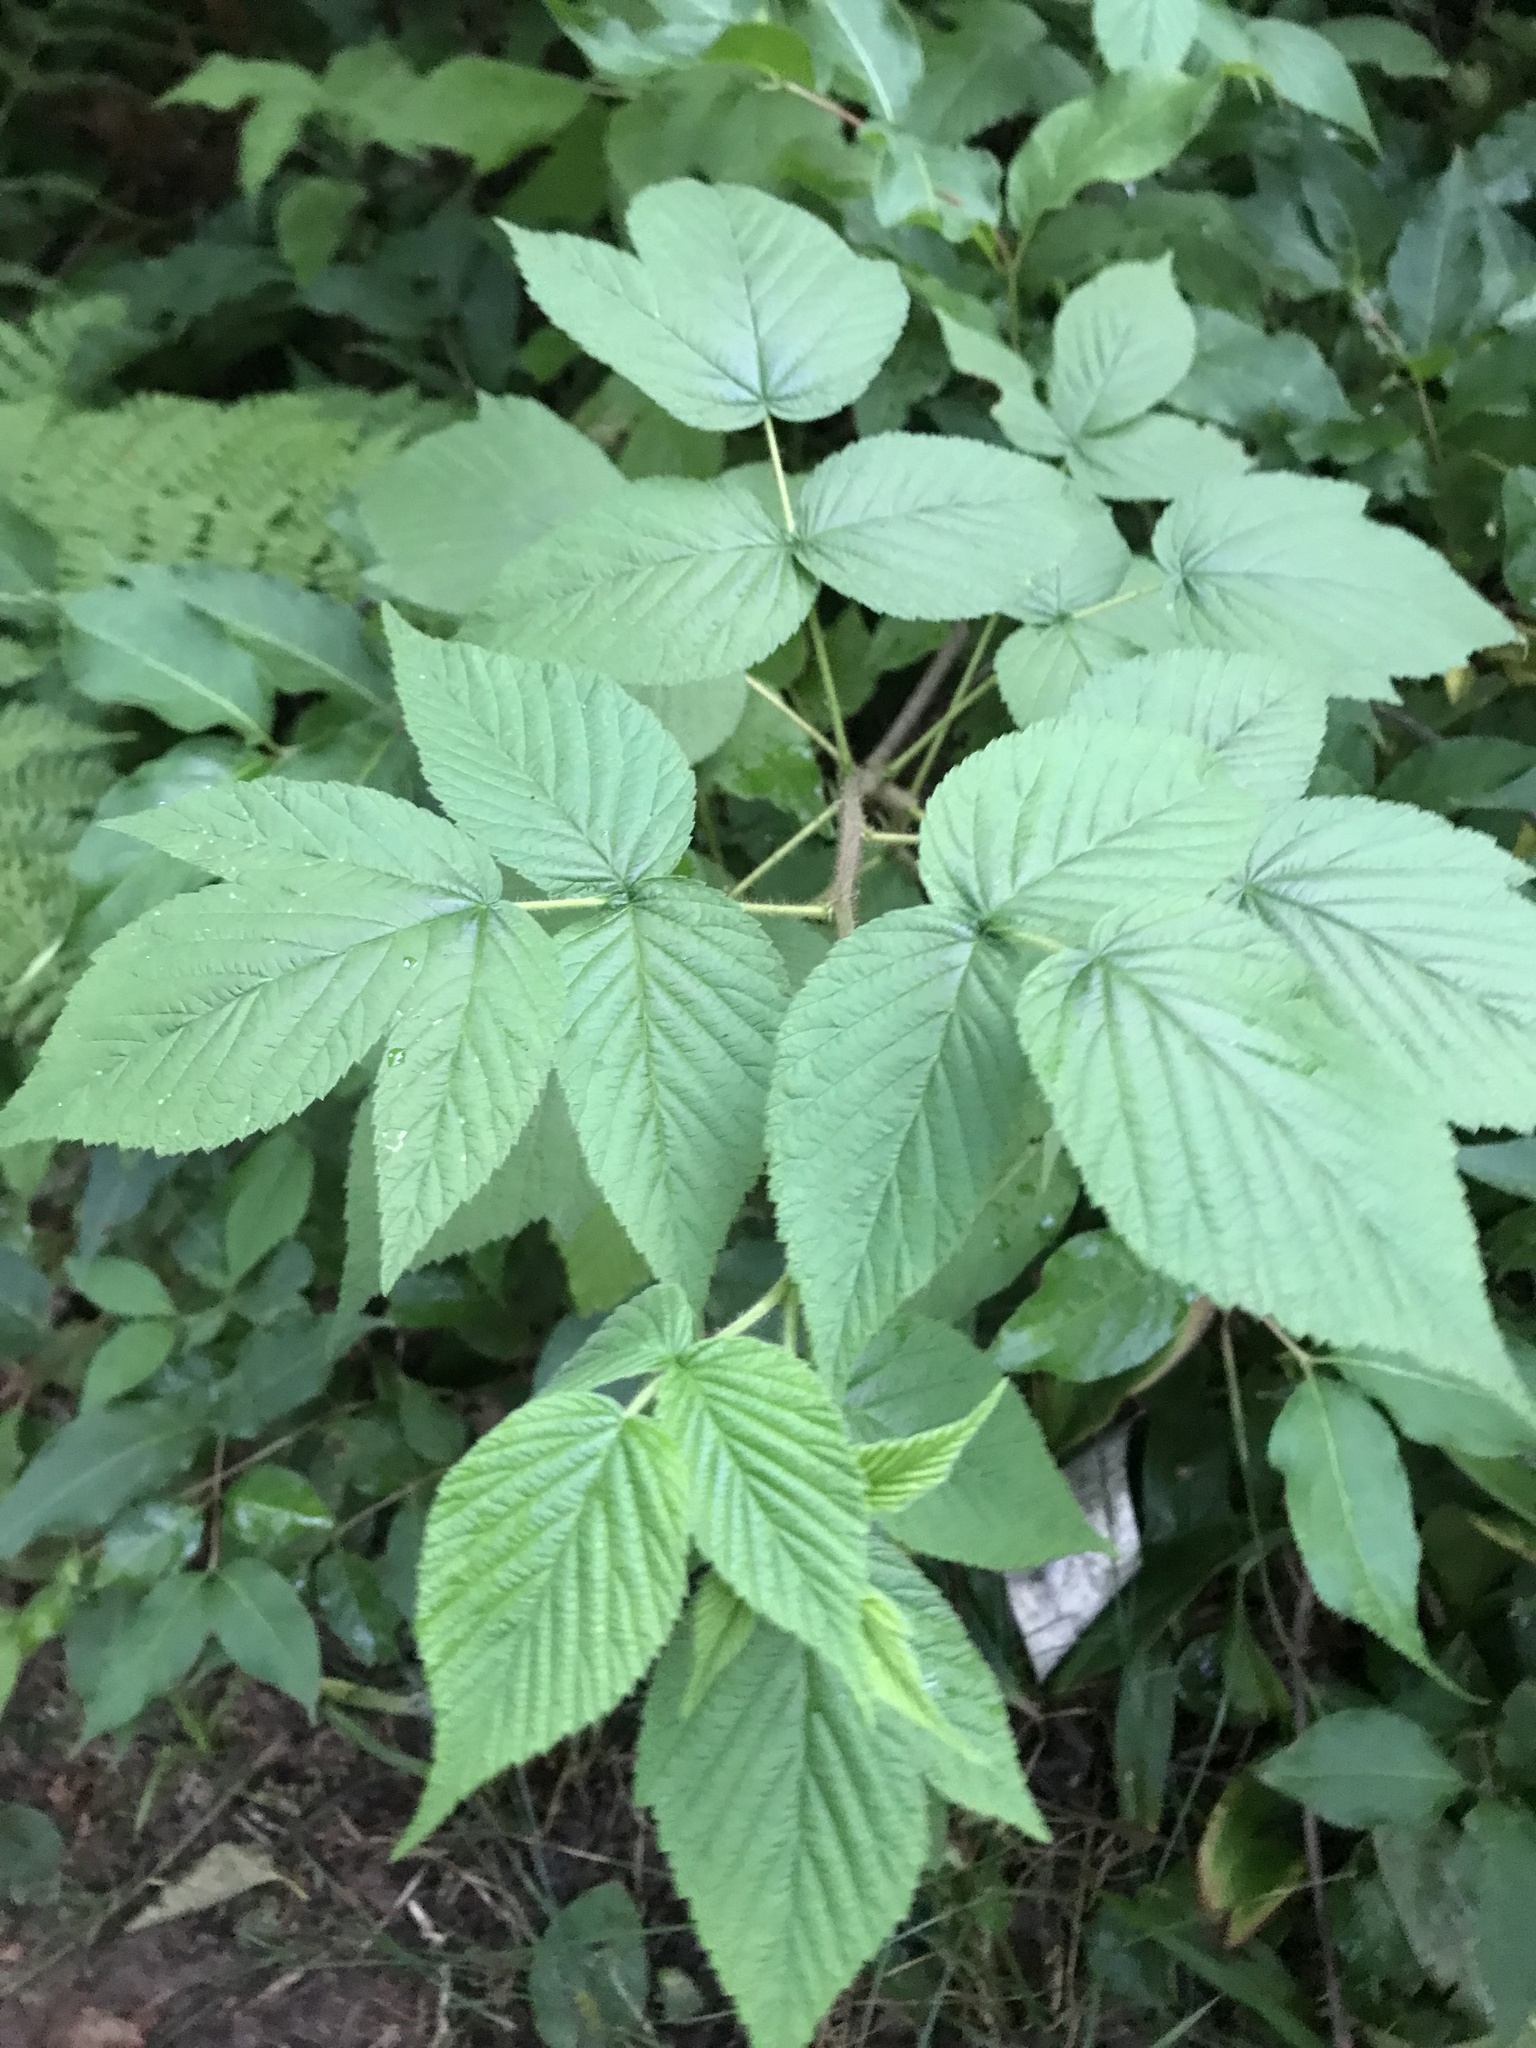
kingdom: Plantae
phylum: Tracheophyta
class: Magnoliopsida
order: Rosales
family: Rosaceae
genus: Rubus
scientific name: Rubus idaeus
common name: Raspberry
